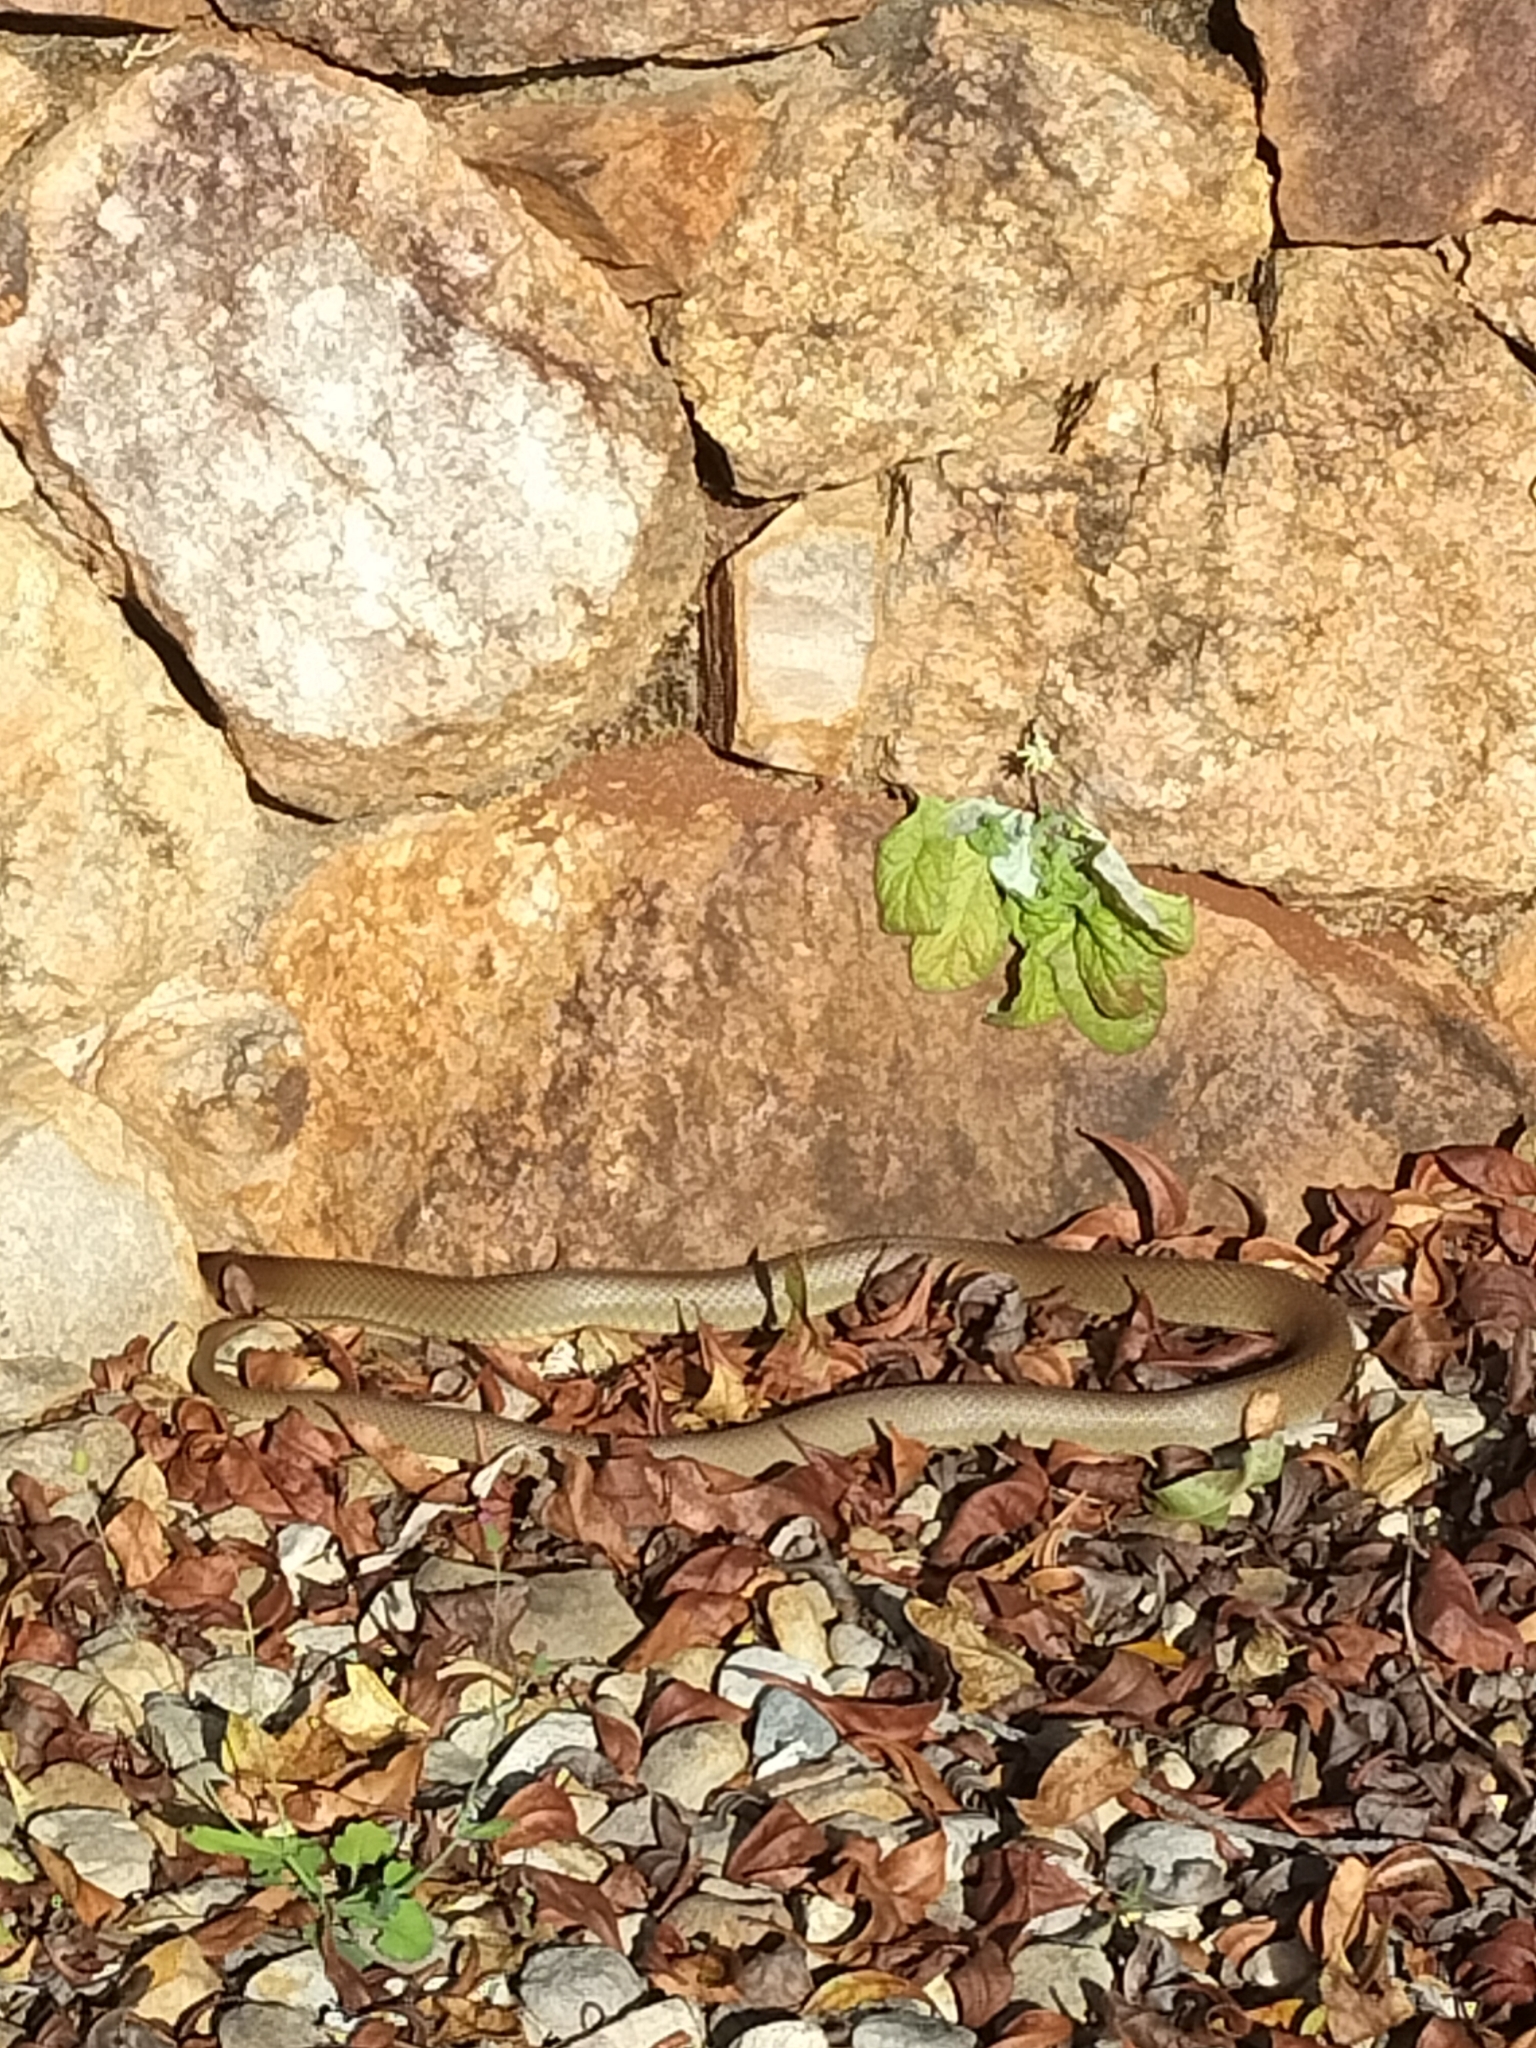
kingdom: Animalia
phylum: Chordata
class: Squamata
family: Elapidae
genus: Pseudonaja
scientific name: Pseudonaja textilis
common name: Eastern brown snake
